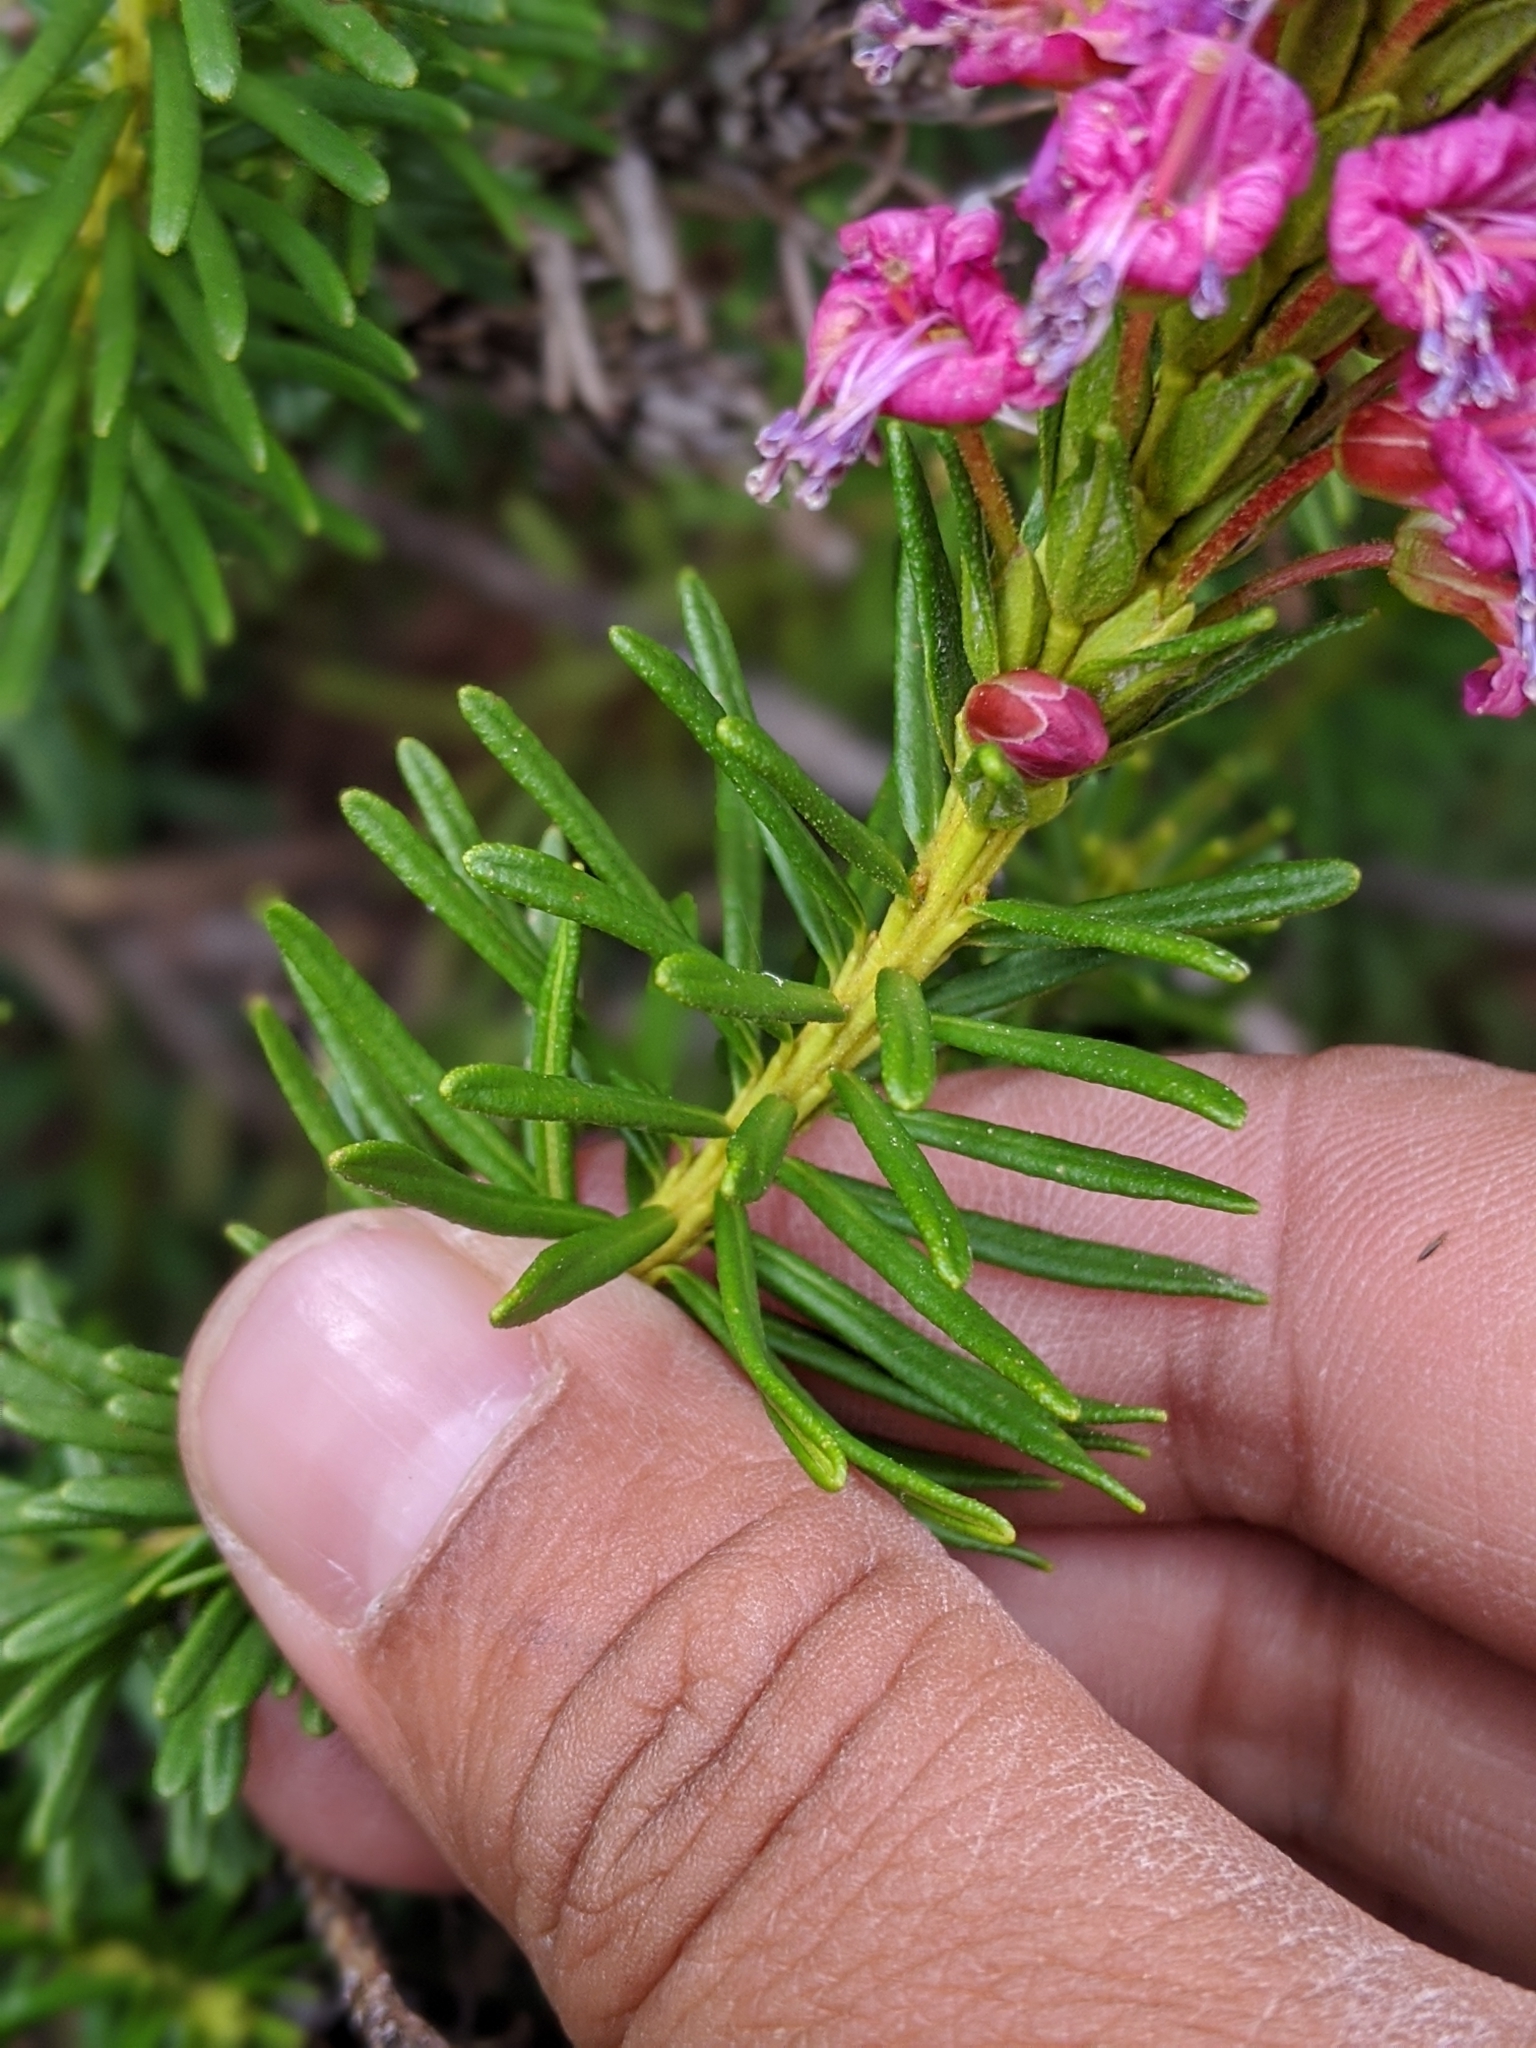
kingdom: Plantae
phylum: Tracheophyta
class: Magnoliopsida
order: Ericales
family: Ericaceae
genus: Phyllodoce
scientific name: Phyllodoce breweri
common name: Brewer's mountain-heather
